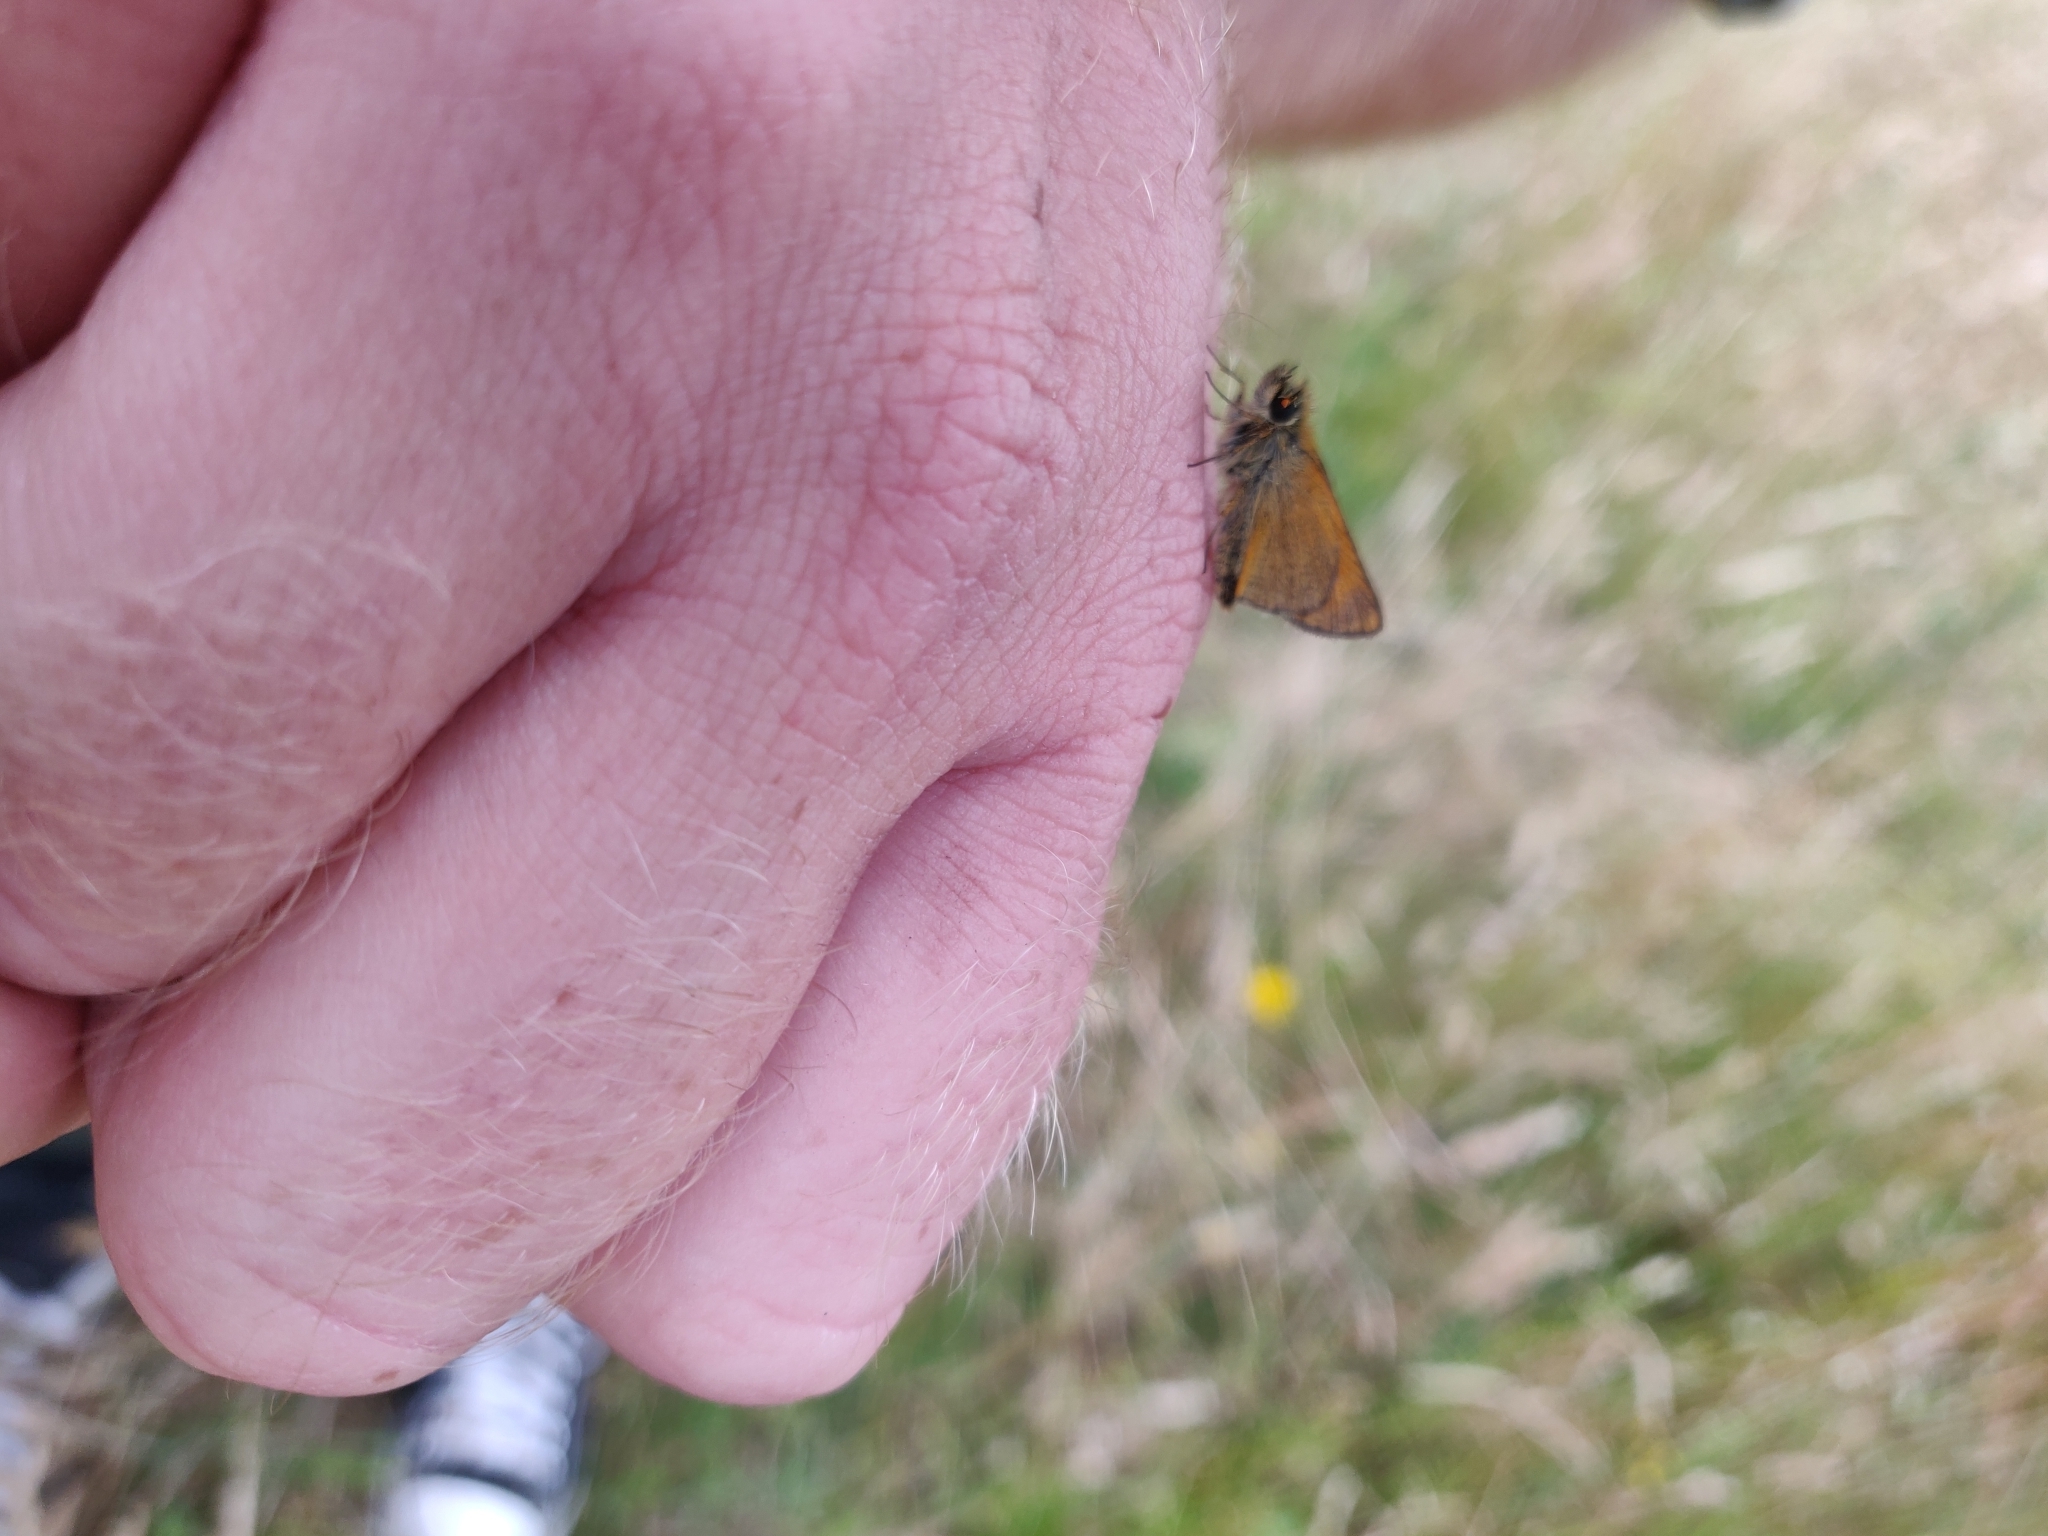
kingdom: Animalia
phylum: Arthropoda
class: Insecta
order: Lepidoptera
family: Hesperiidae
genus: Thymelicus
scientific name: Thymelicus sylvestris
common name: Small skipper
